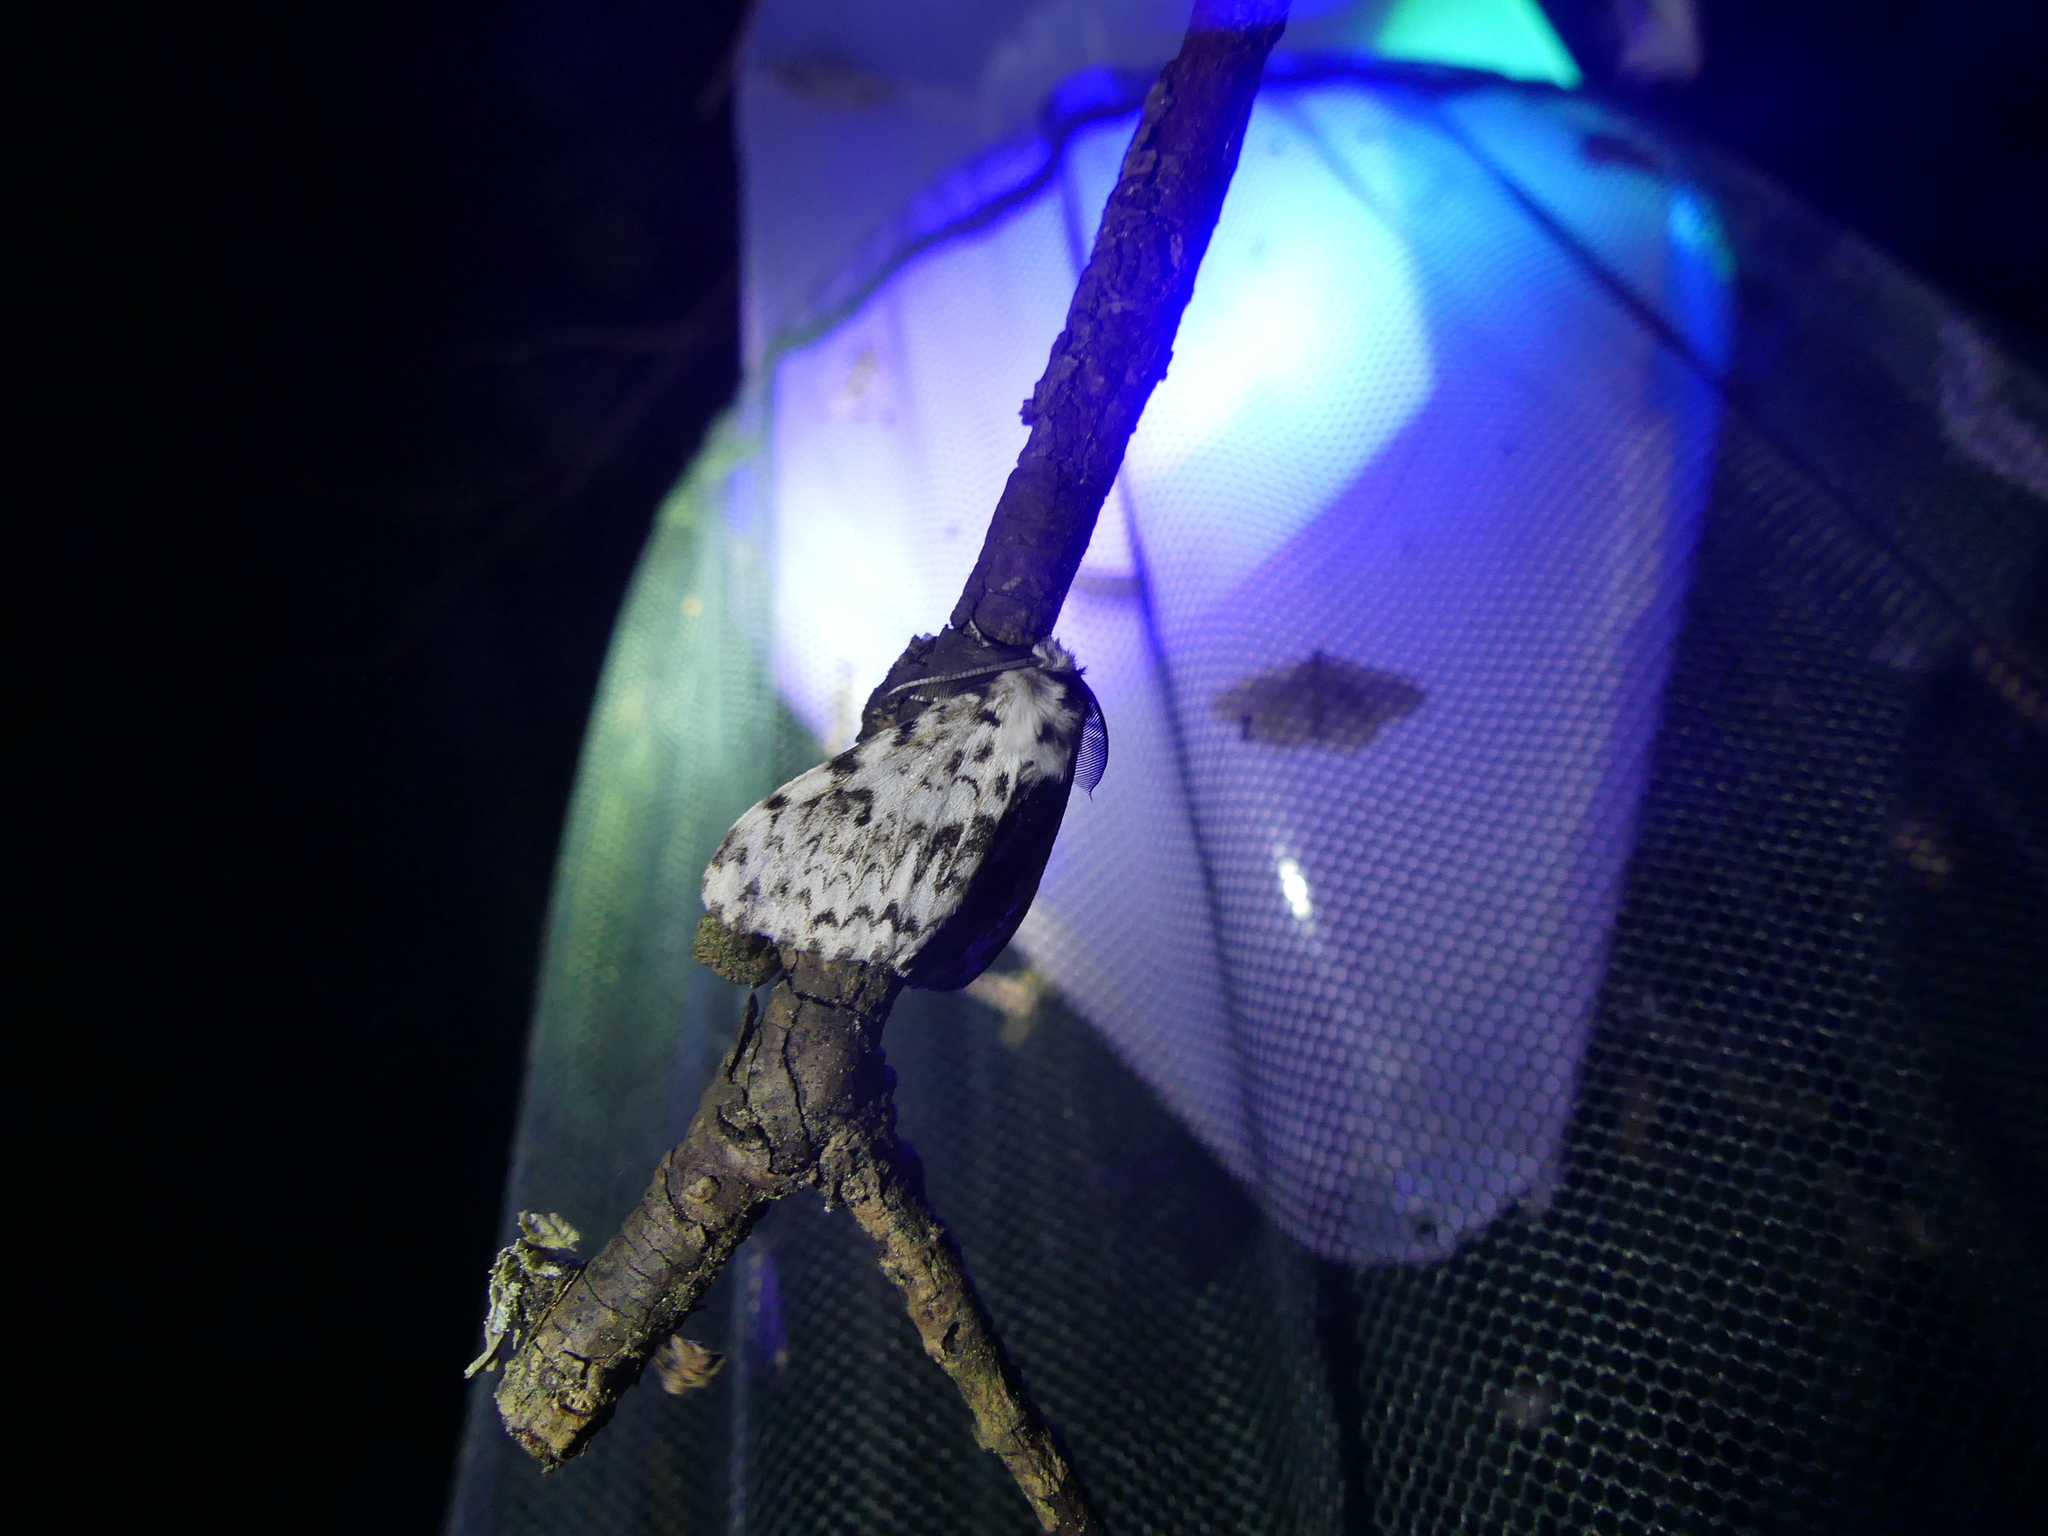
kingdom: Animalia
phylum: Arthropoda
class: Insecta
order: Lepidoptera
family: Erebidae
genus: Lymantria
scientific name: Lymantria monacha
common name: Black arches
